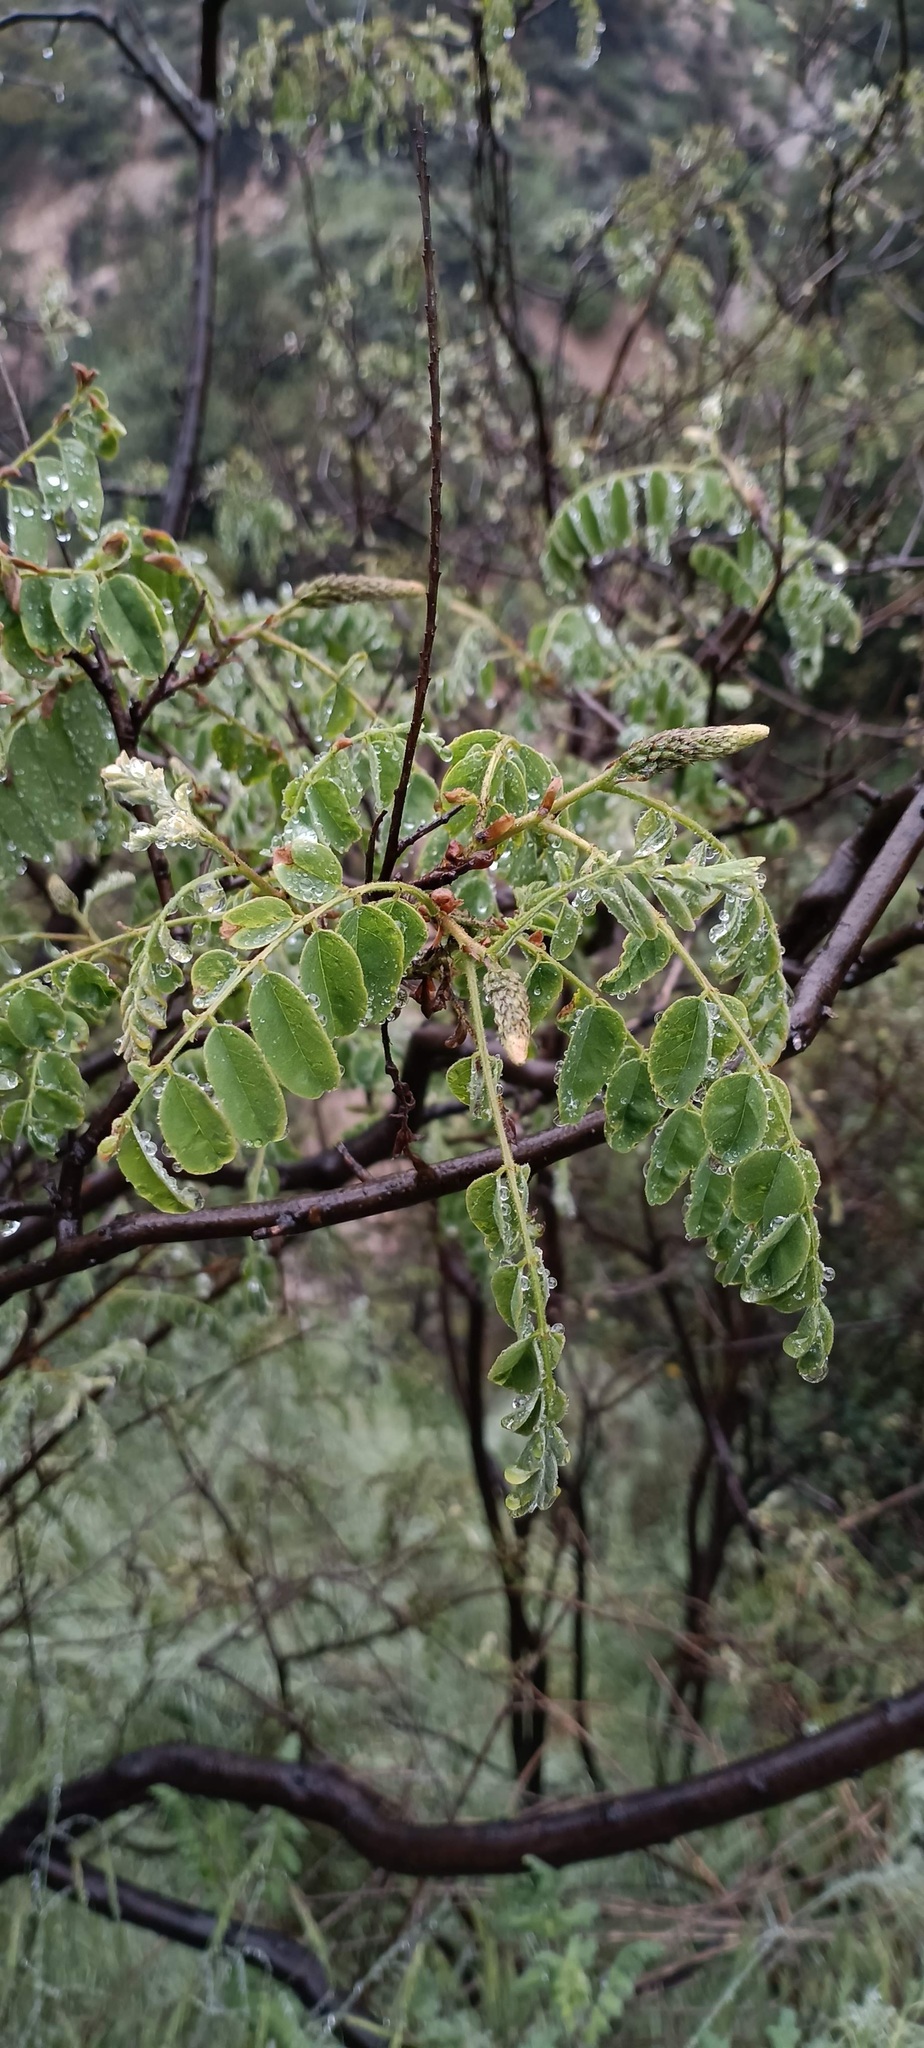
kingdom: Plantae
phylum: Tracheophyta
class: Magnoliopsida
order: Fabales
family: Fabaceae
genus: Amorpha
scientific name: Amorpha californica
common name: California indigobush
